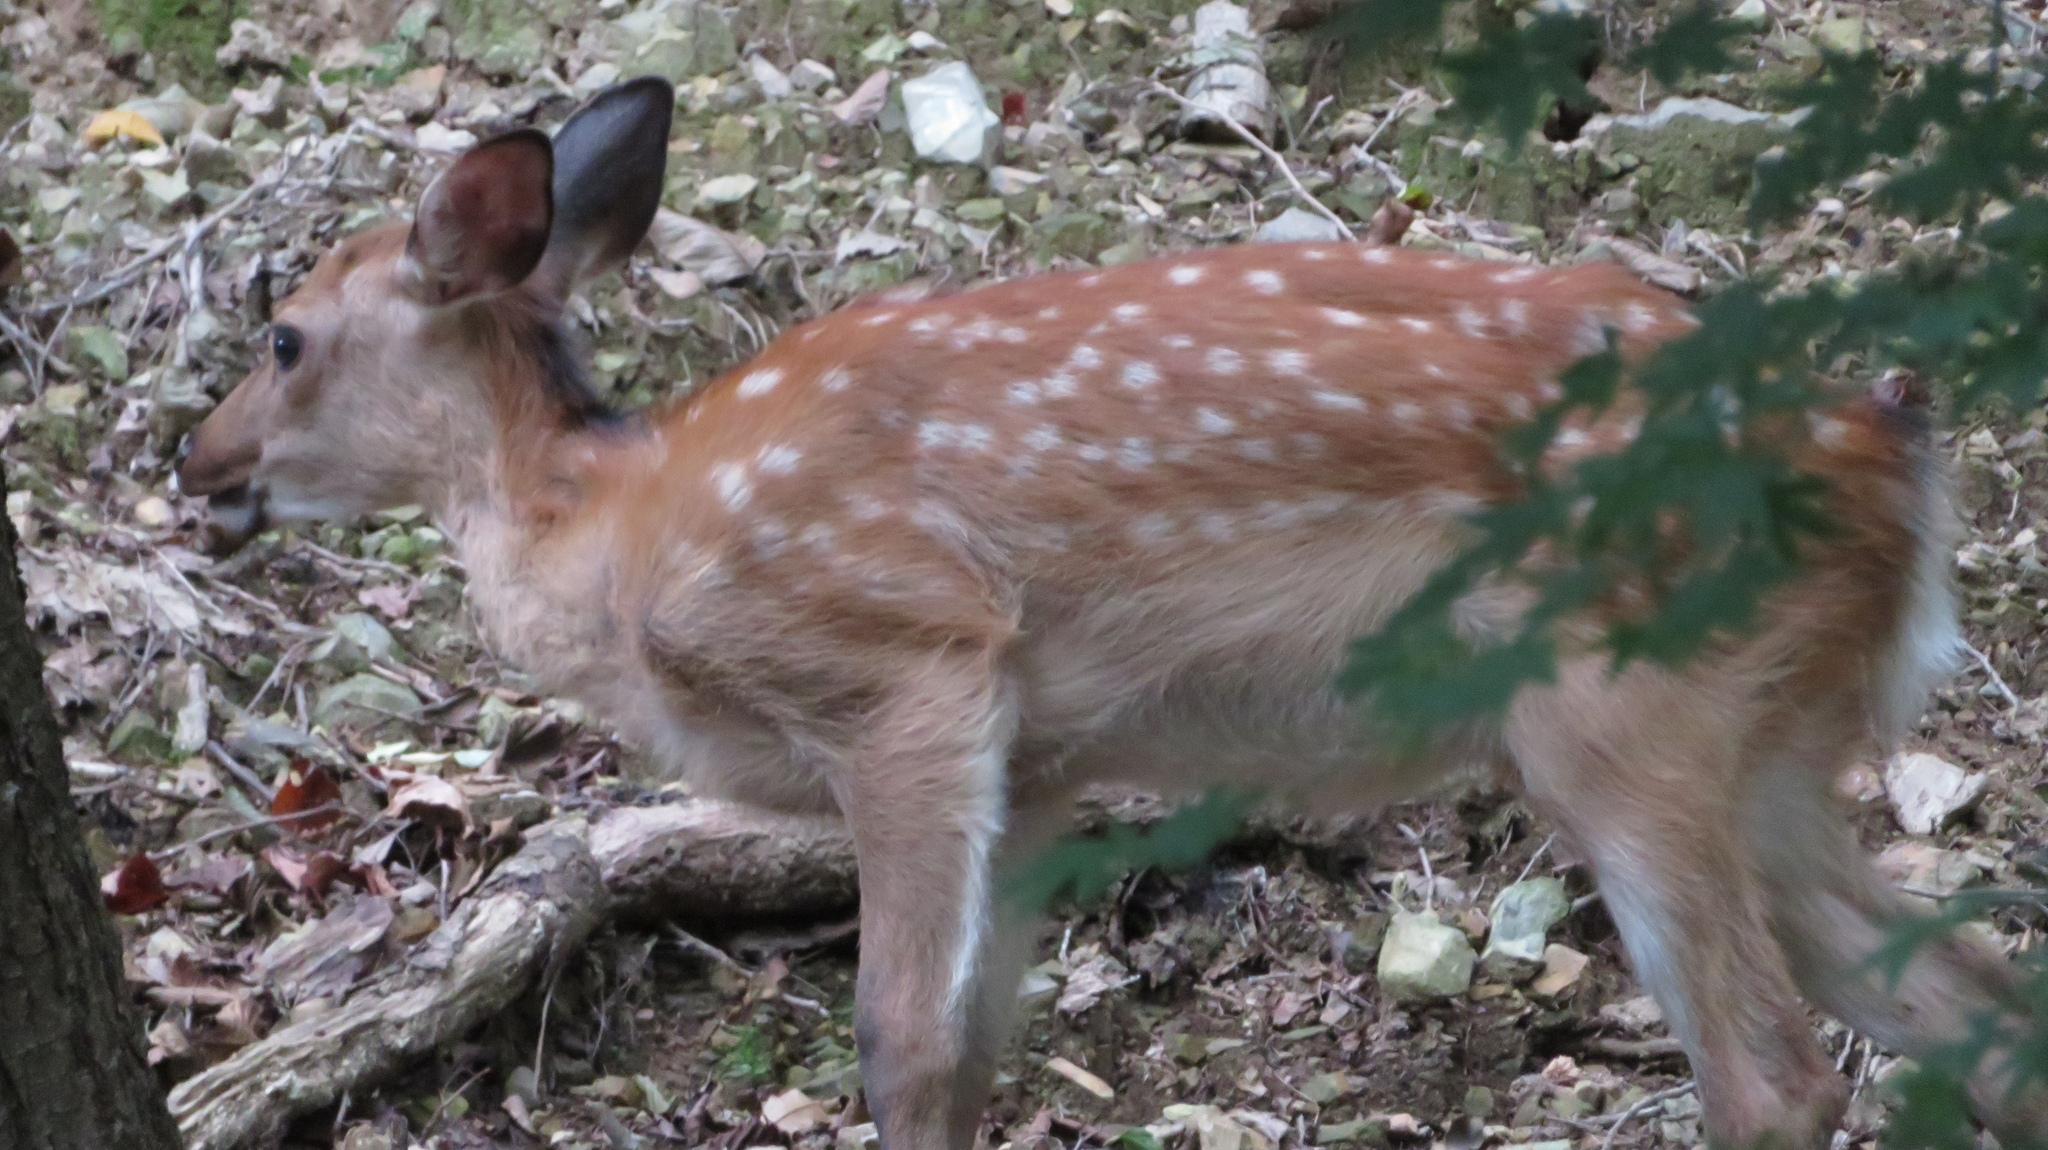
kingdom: Animalia
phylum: Chordata
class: Mammalia
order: Artiodactyla
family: Cervidae
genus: Cervus
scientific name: Cervus nippon
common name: Sika deer
